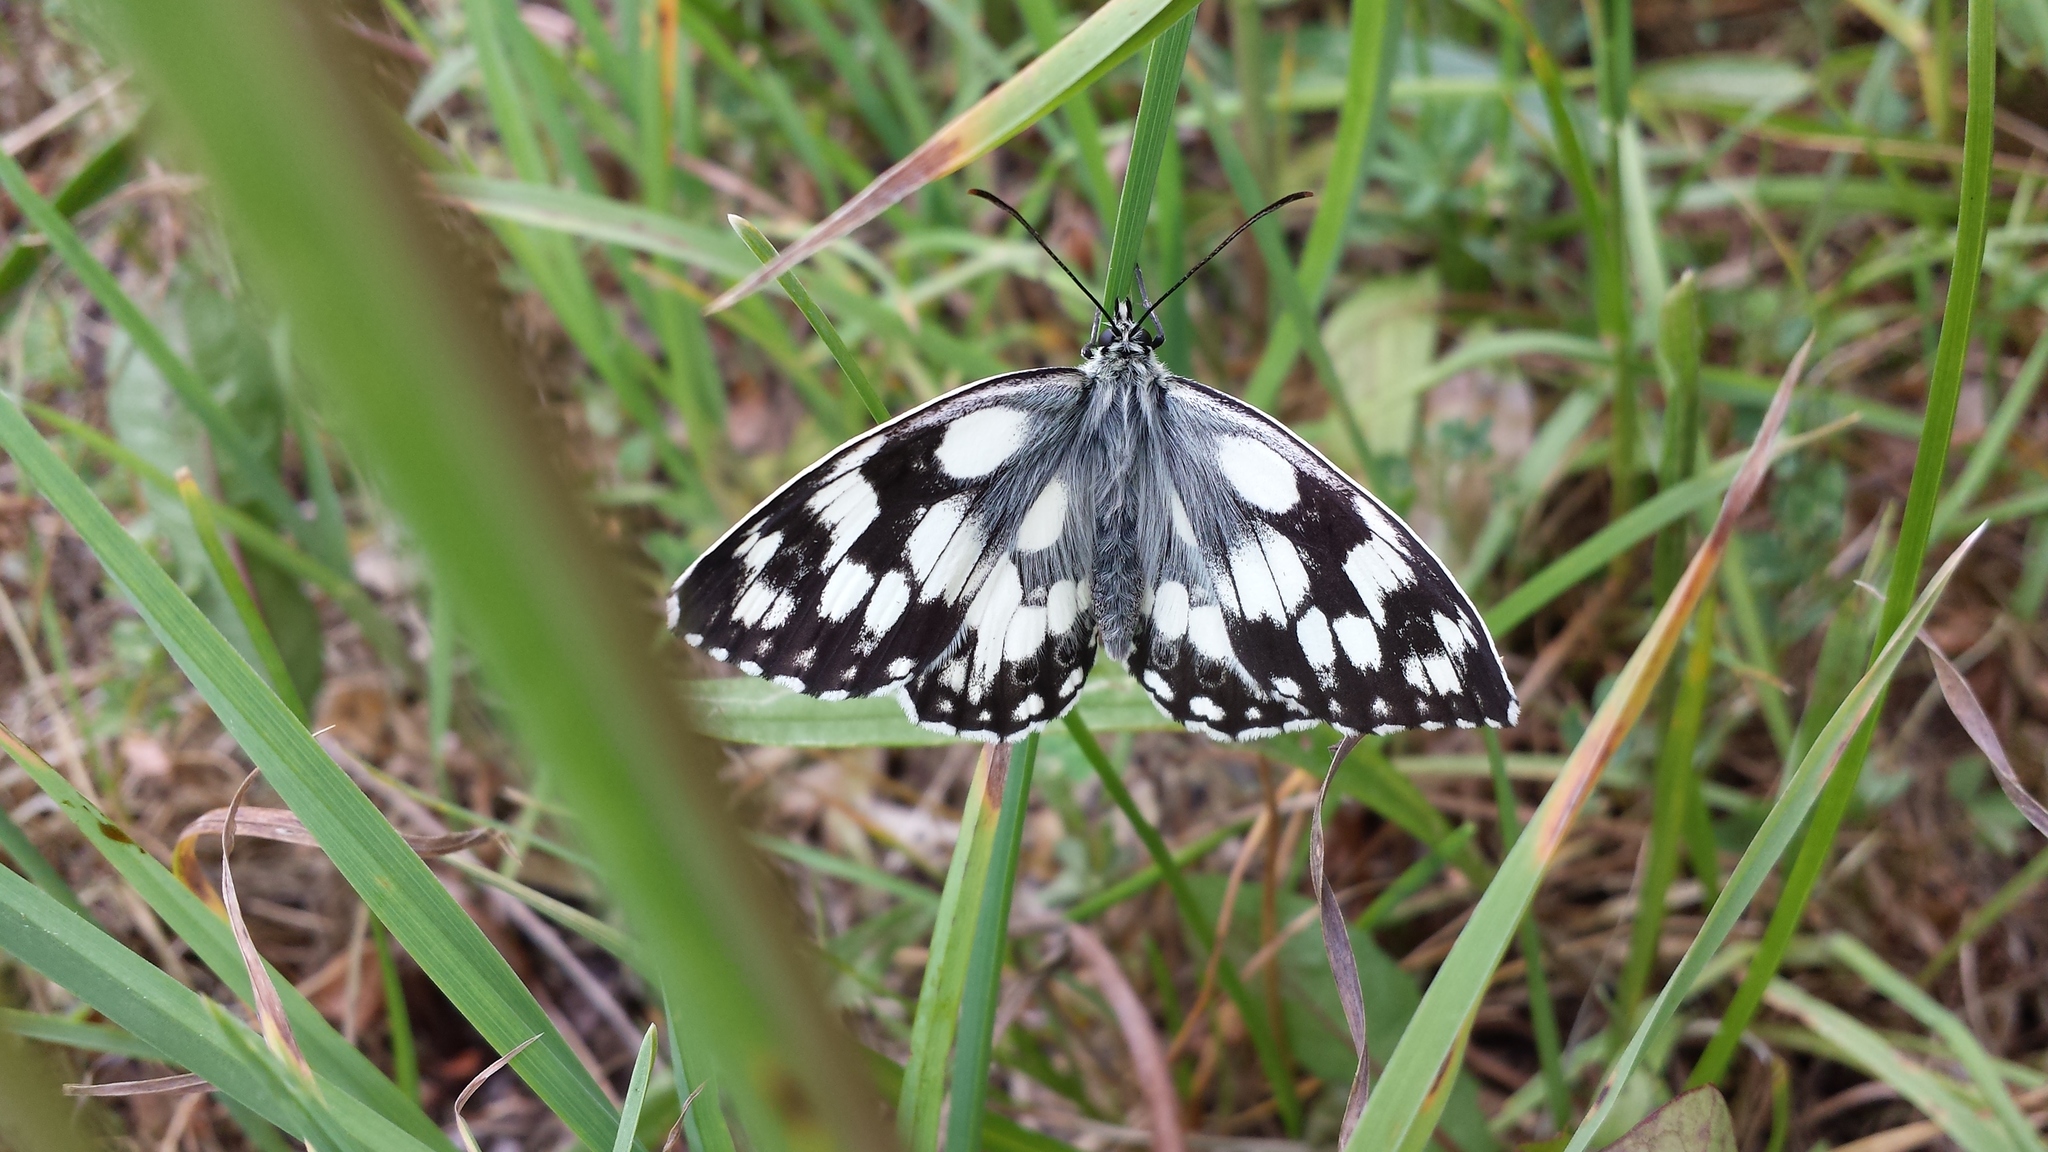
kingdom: Animalia
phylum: Arthropoda
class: Insecta
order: Lepidoptera
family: Nymphalidae
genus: Melanargia
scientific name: Melanargia galathea
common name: Marbled white
